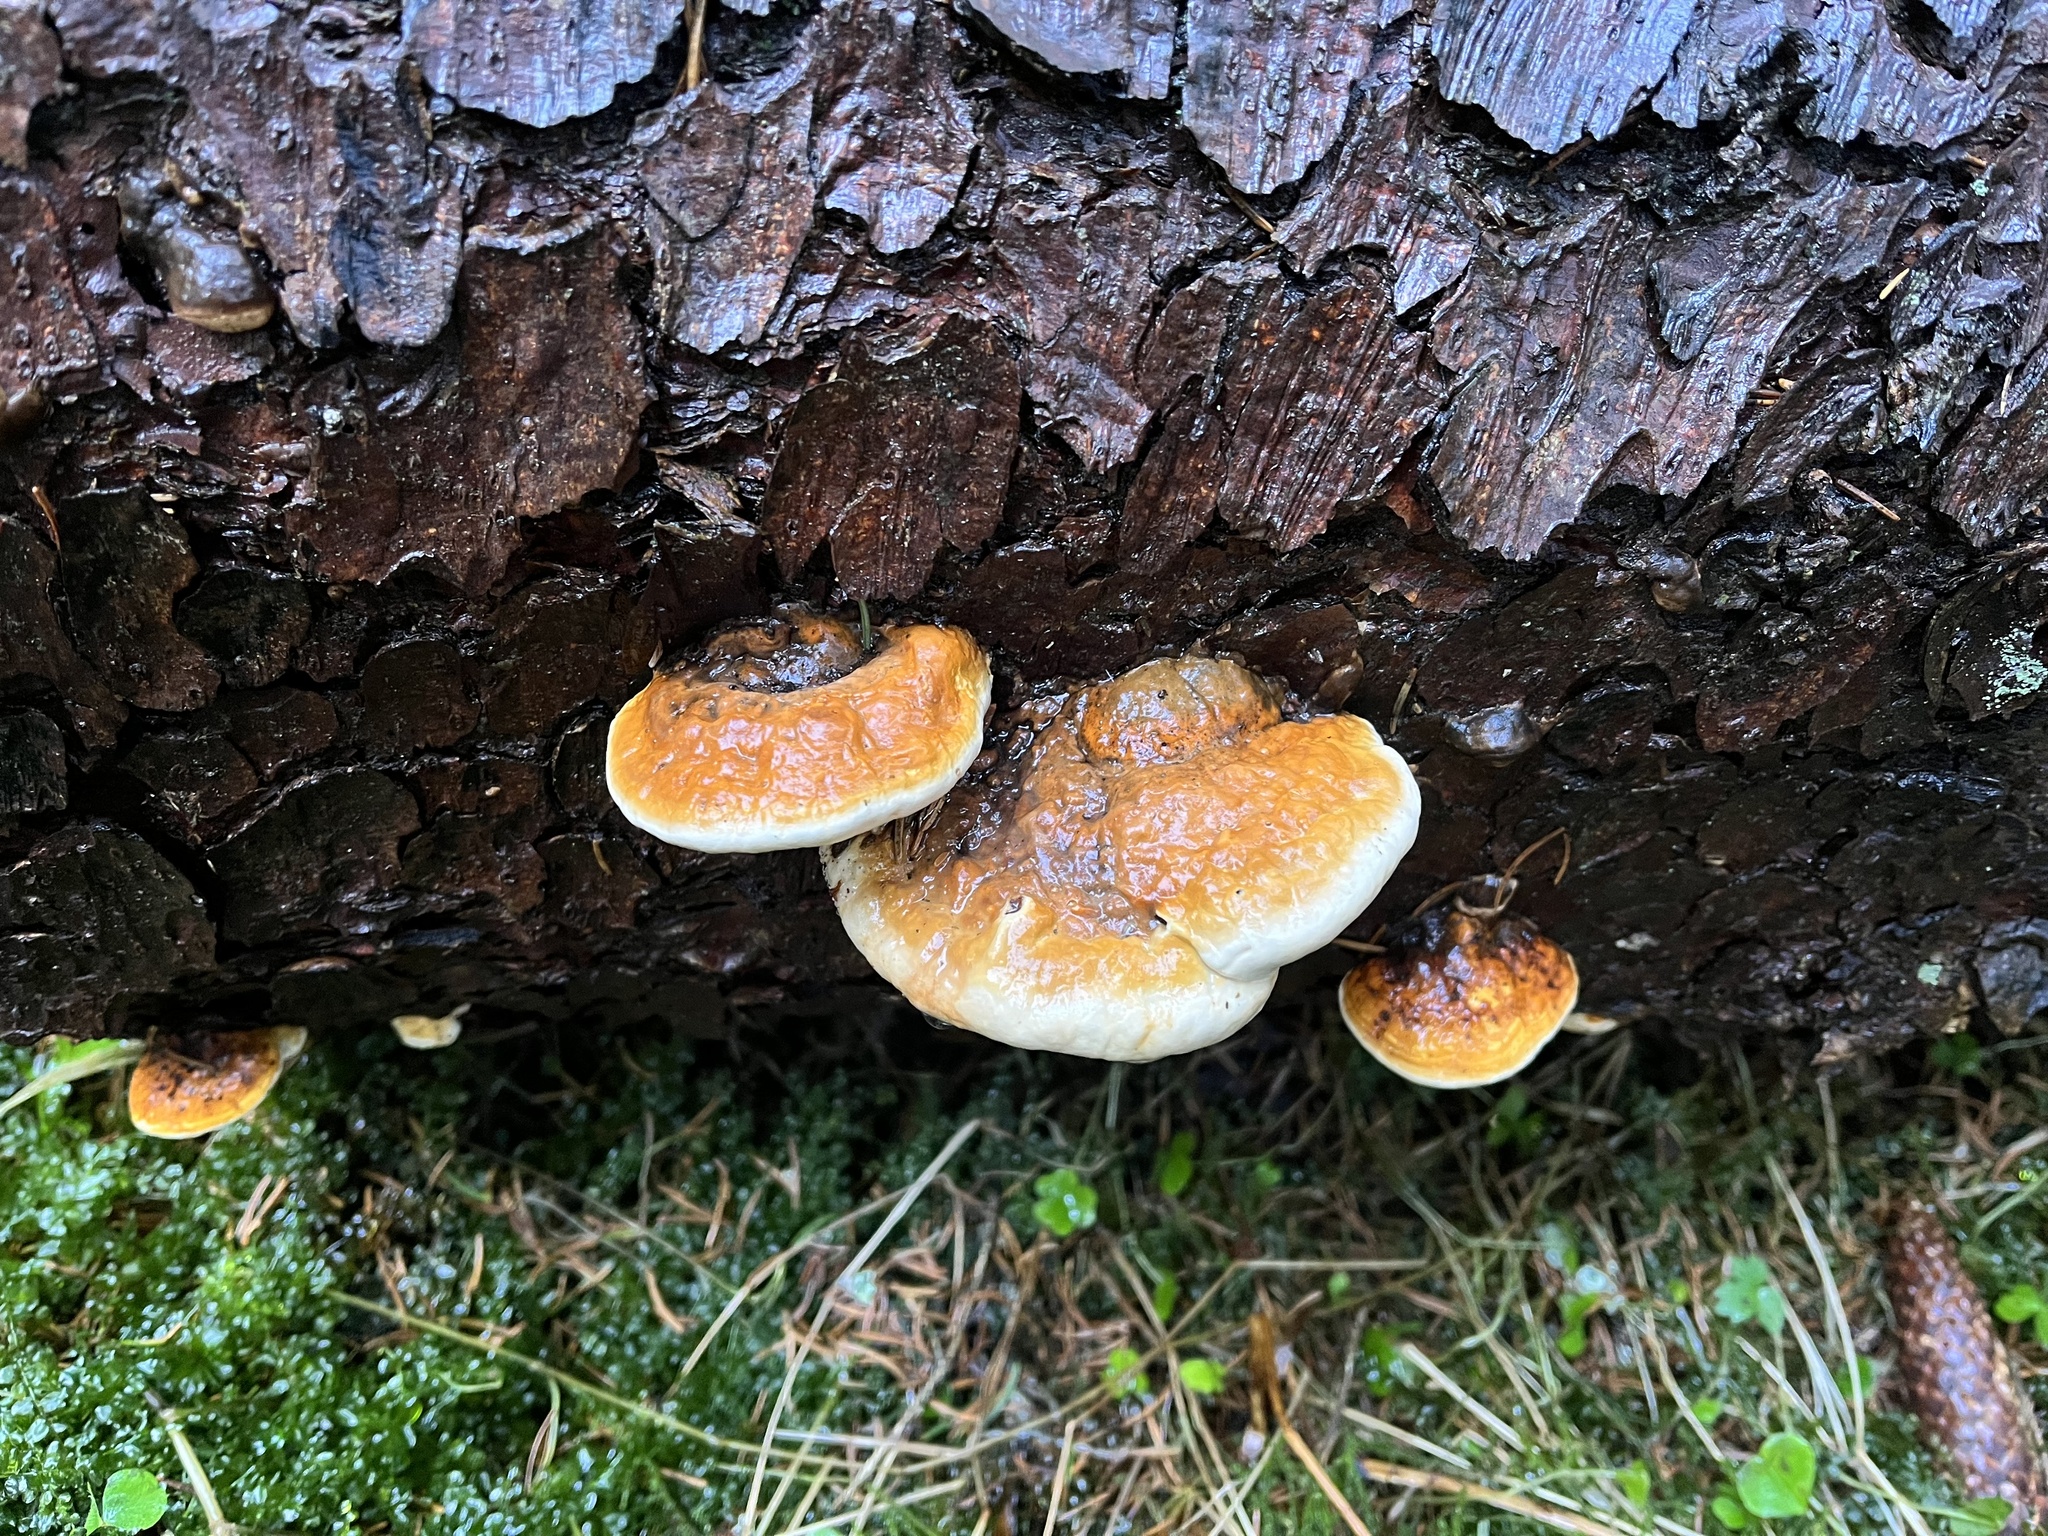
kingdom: Fungi
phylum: Basidiomycota
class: Agaricomycetes
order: Polyporales
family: Fomitopsidaceae
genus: Fomitopsis
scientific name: Fomitopsis pinicola
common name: Red-belted bracket
